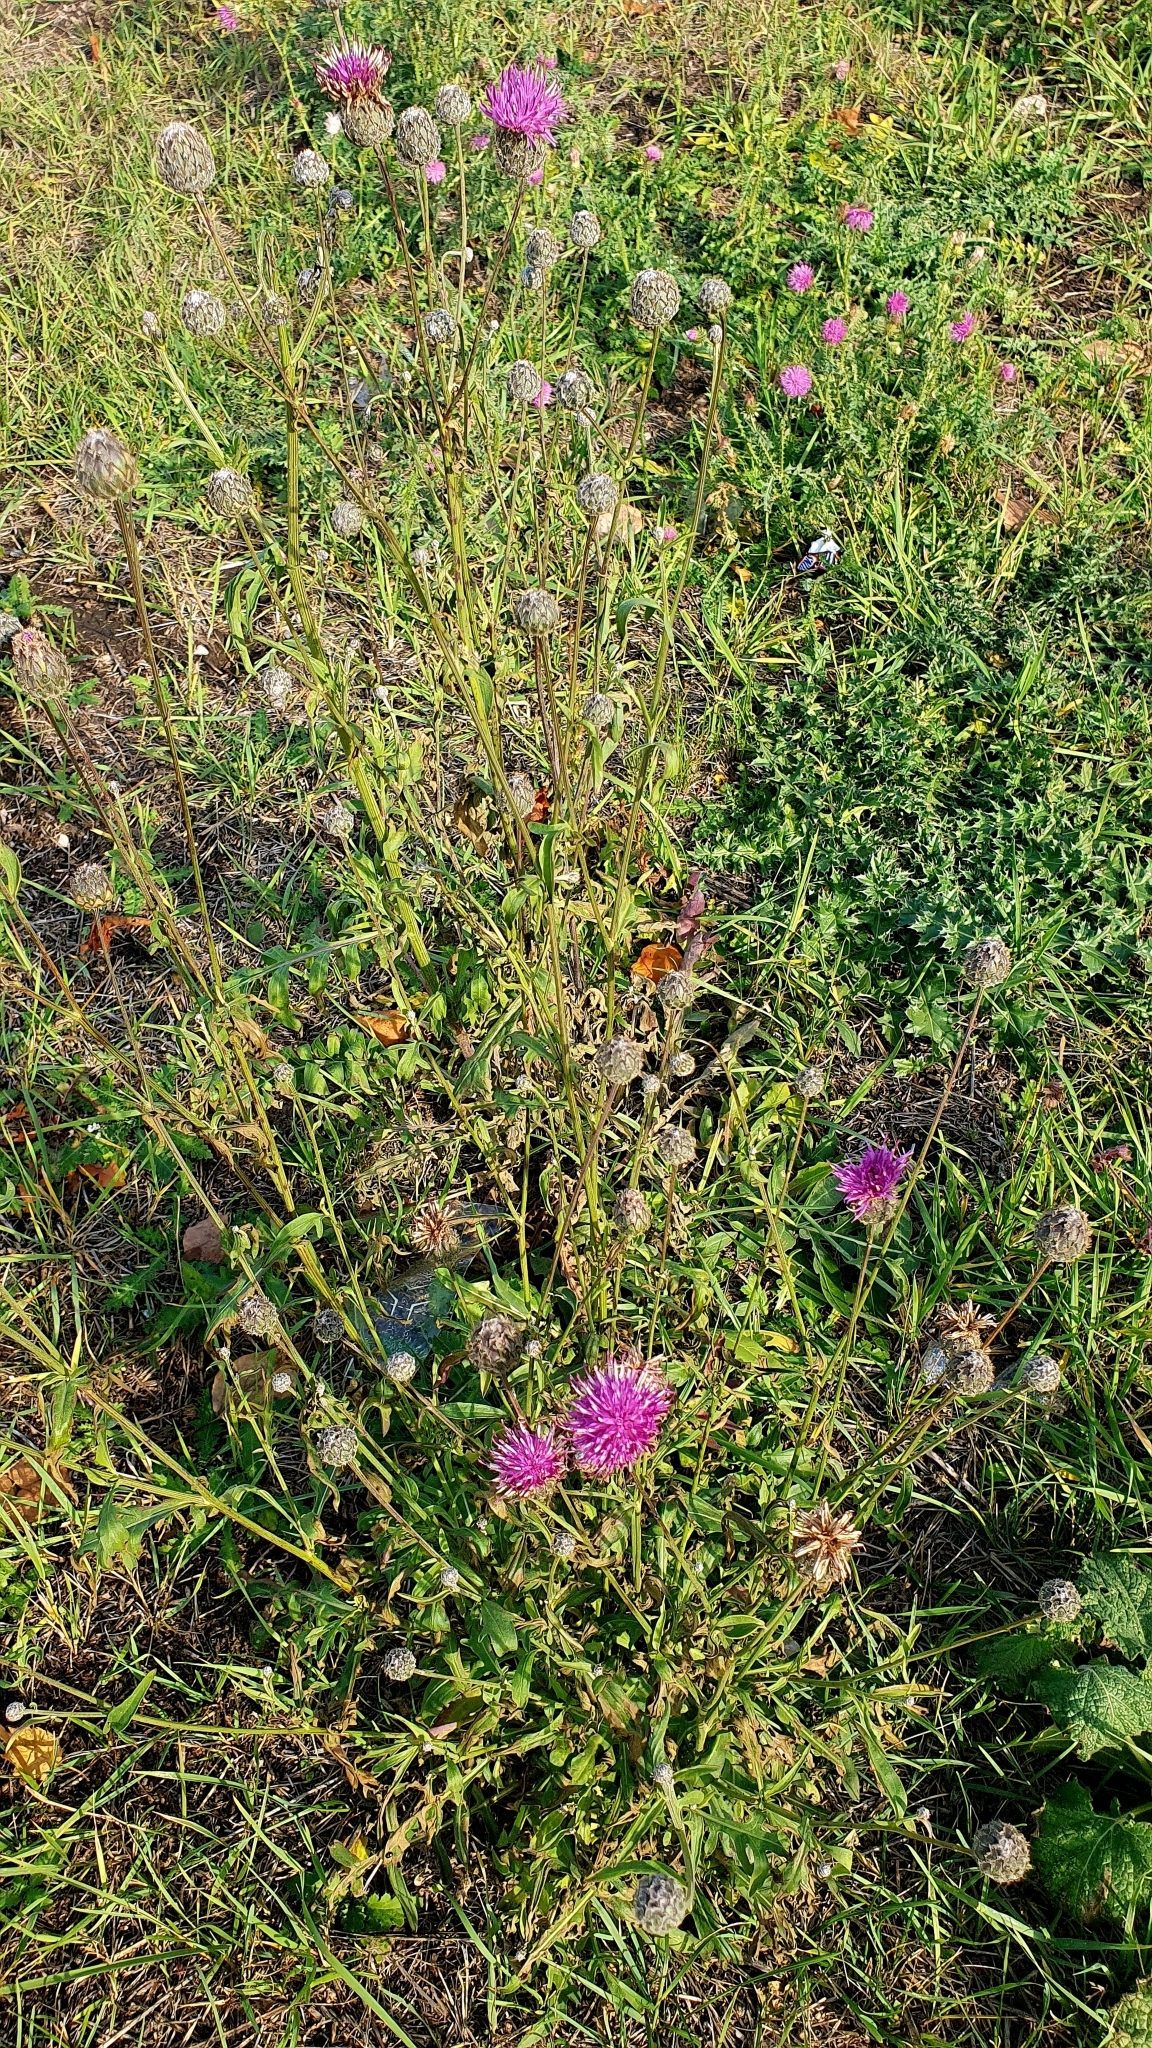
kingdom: Plantae
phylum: Tracheophyta
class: Magnoliopsida
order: Asterales
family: Asteraceae
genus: Centaurea
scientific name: Centaurea scabiosa
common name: Greater knapweed
